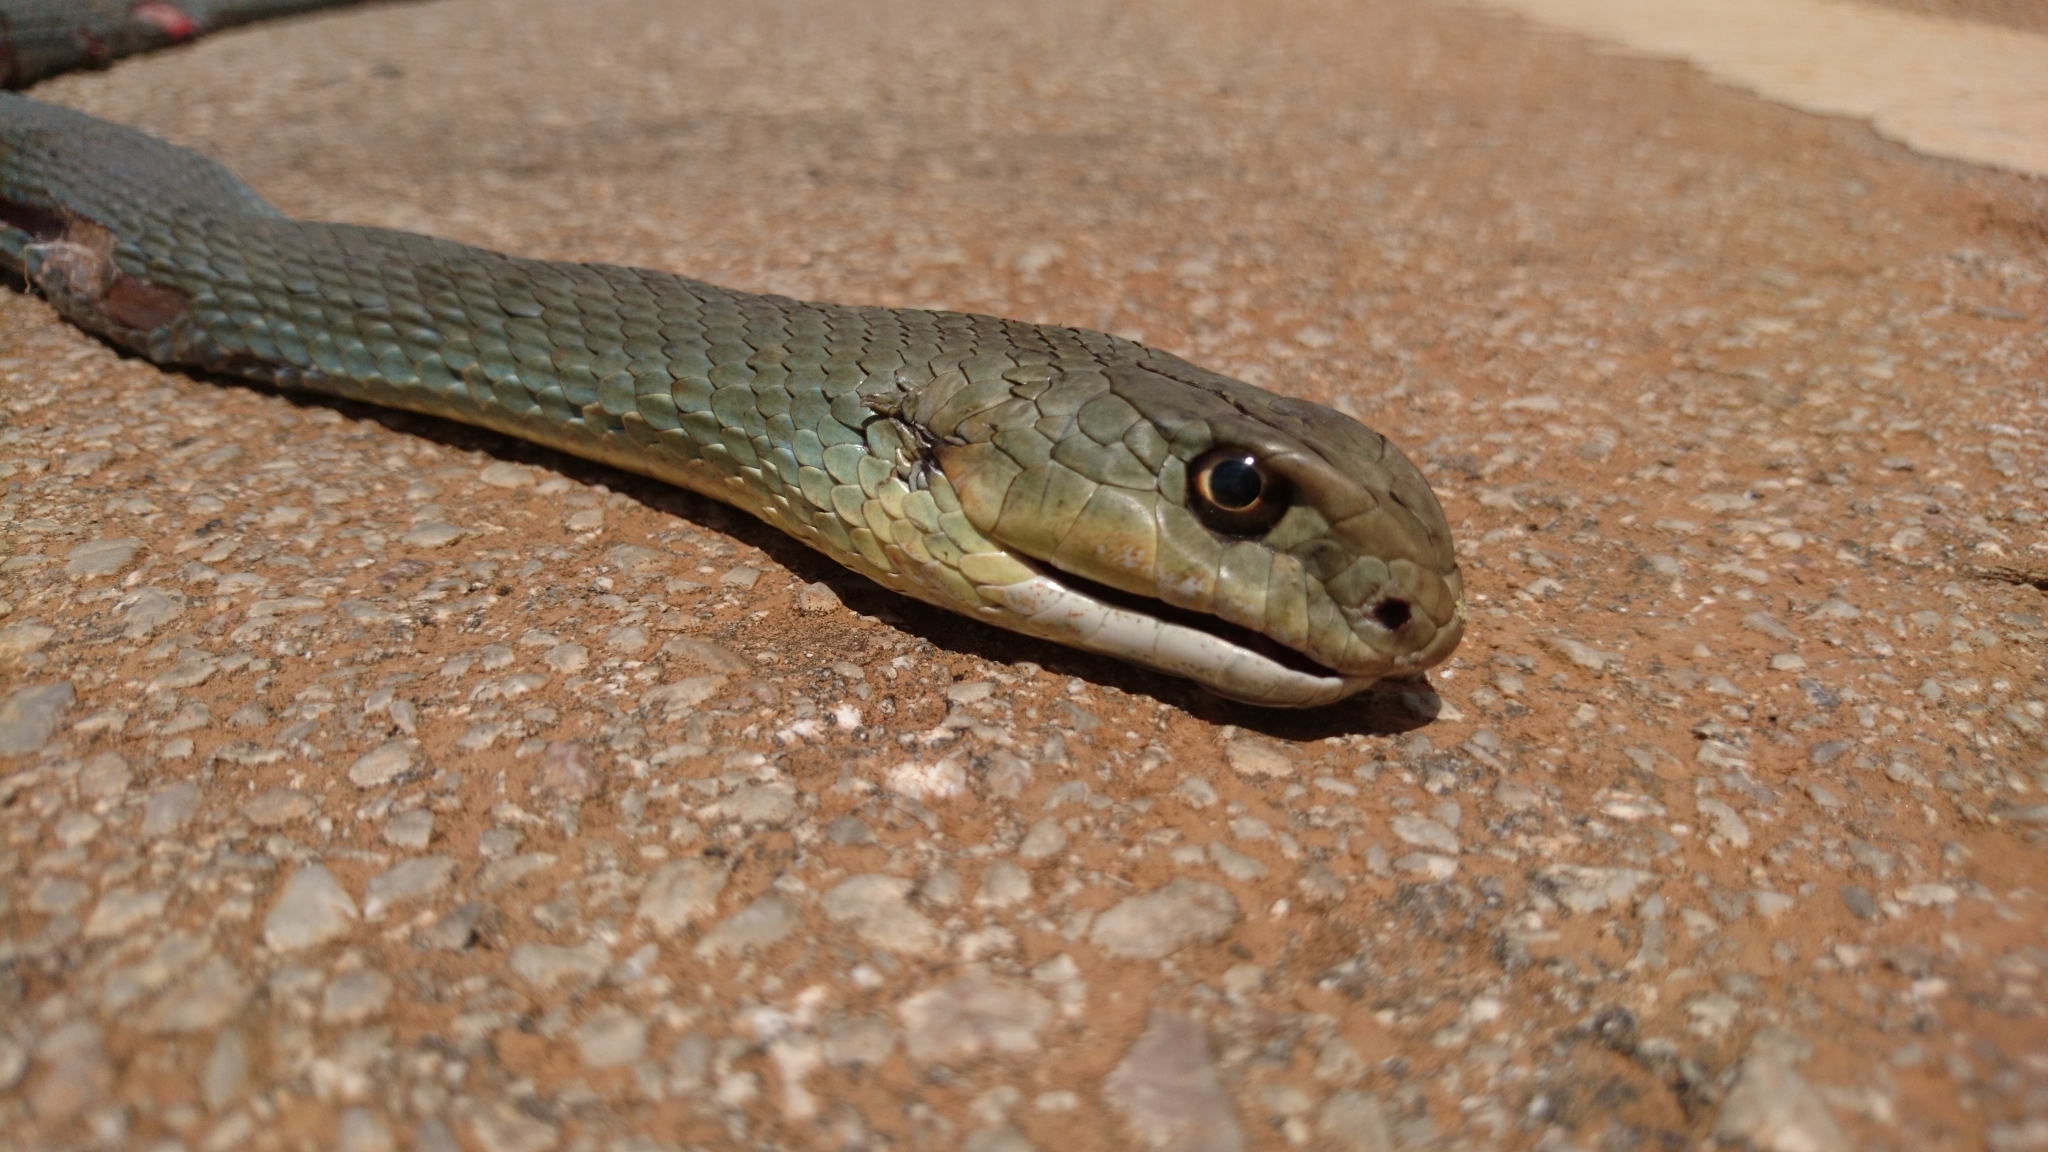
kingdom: Animalia
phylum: Chordata
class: Squamata
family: Psammophiidae
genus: Malpolon
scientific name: Malpolon insignitus
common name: Eastern montpellier snake
